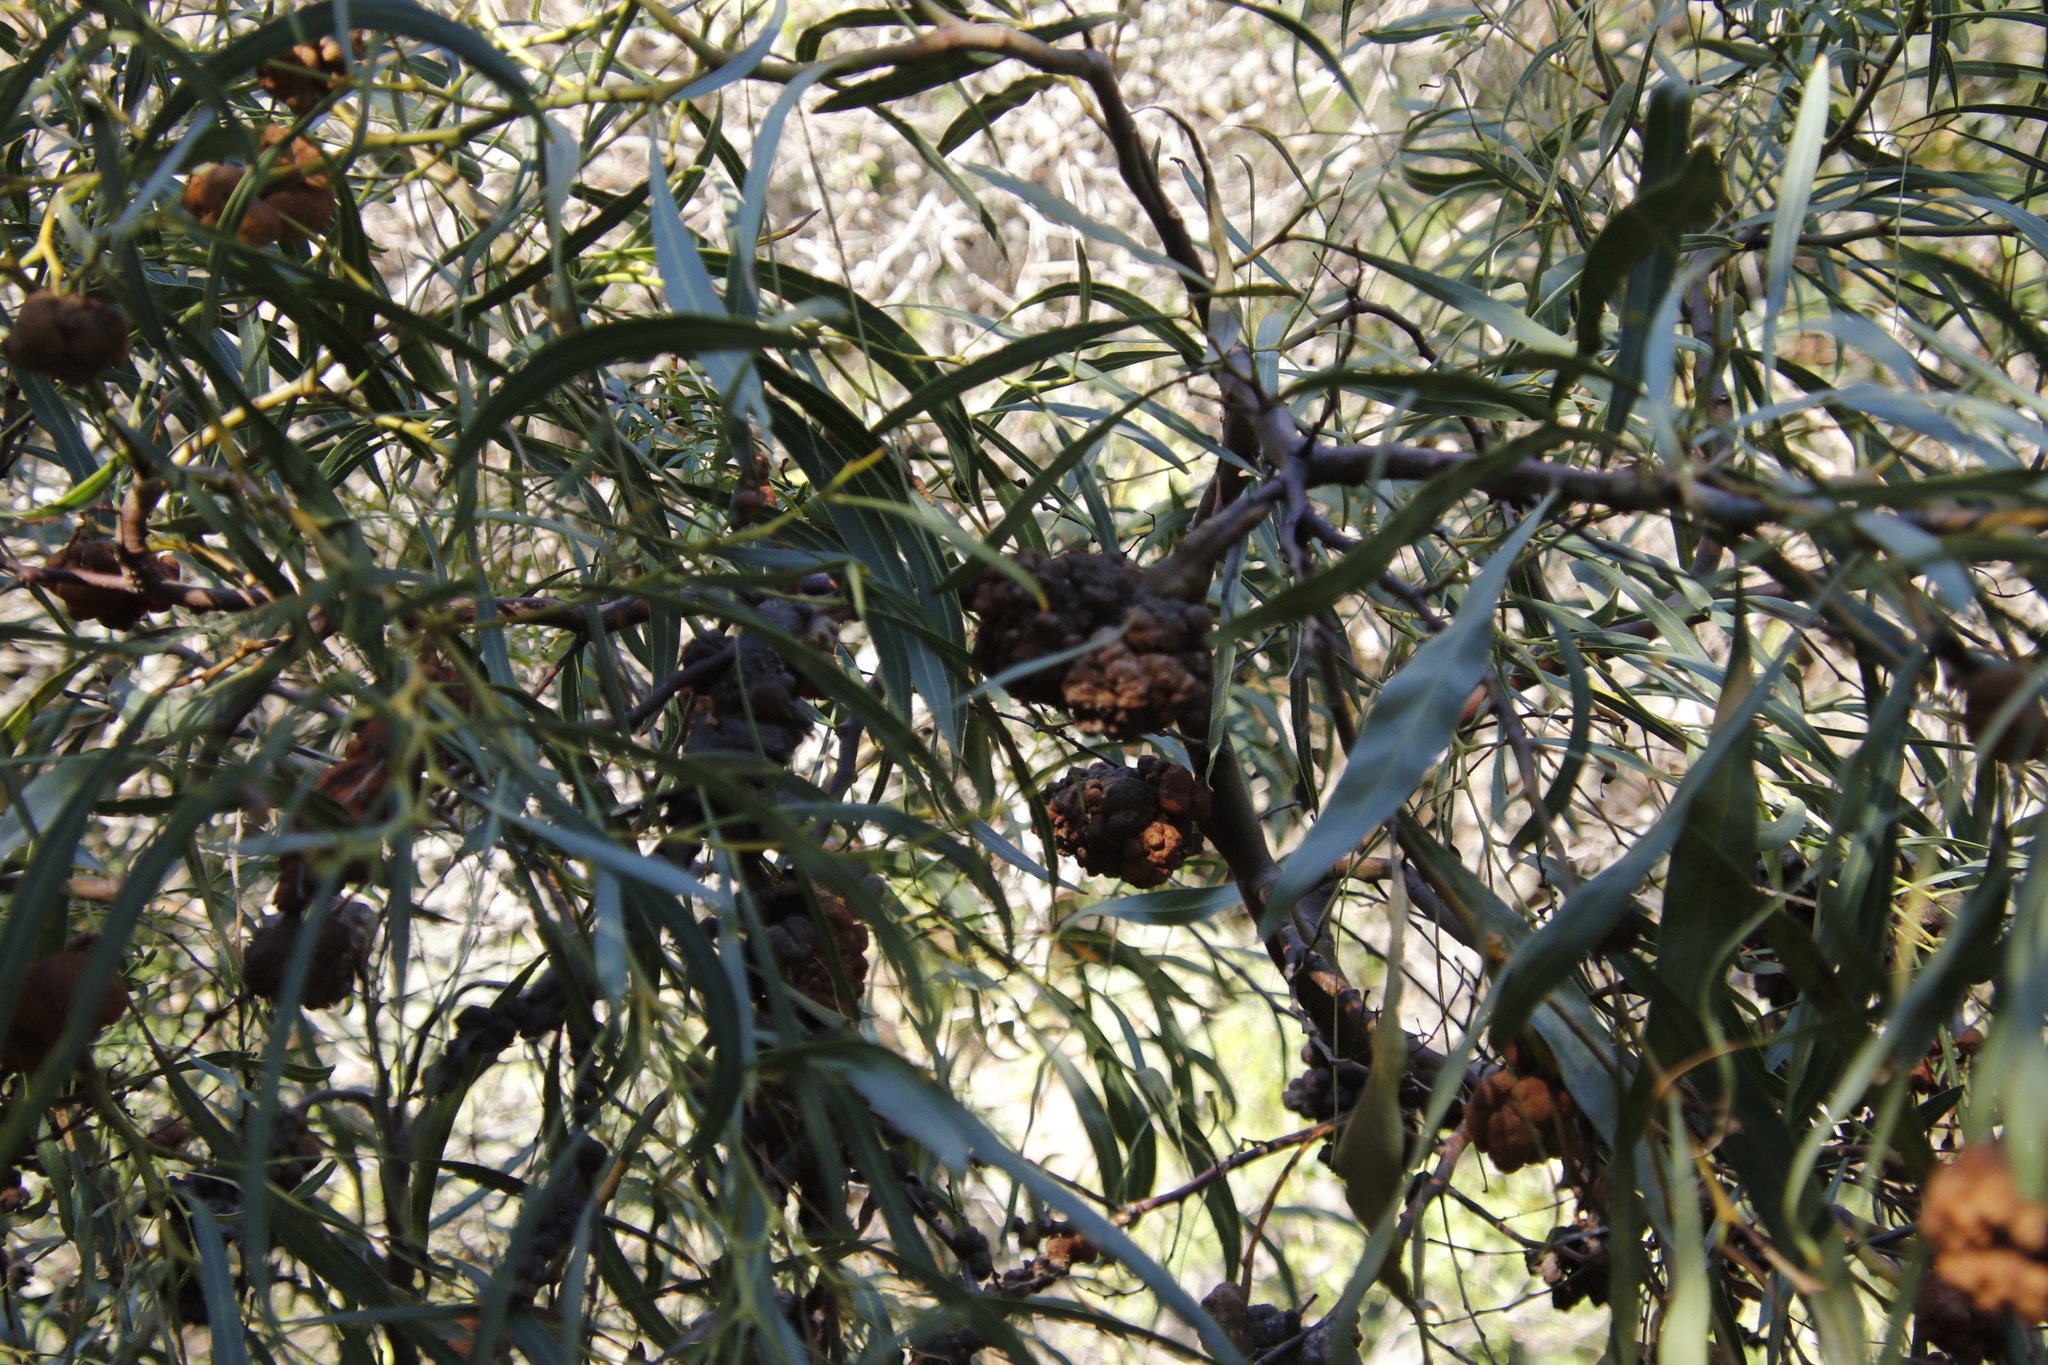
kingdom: Plantae
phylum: Tracheophyta
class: Magnoliopsida
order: Fabales
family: Fabaceae
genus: Acacia
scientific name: Acacia saligna
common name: Orange wattle
